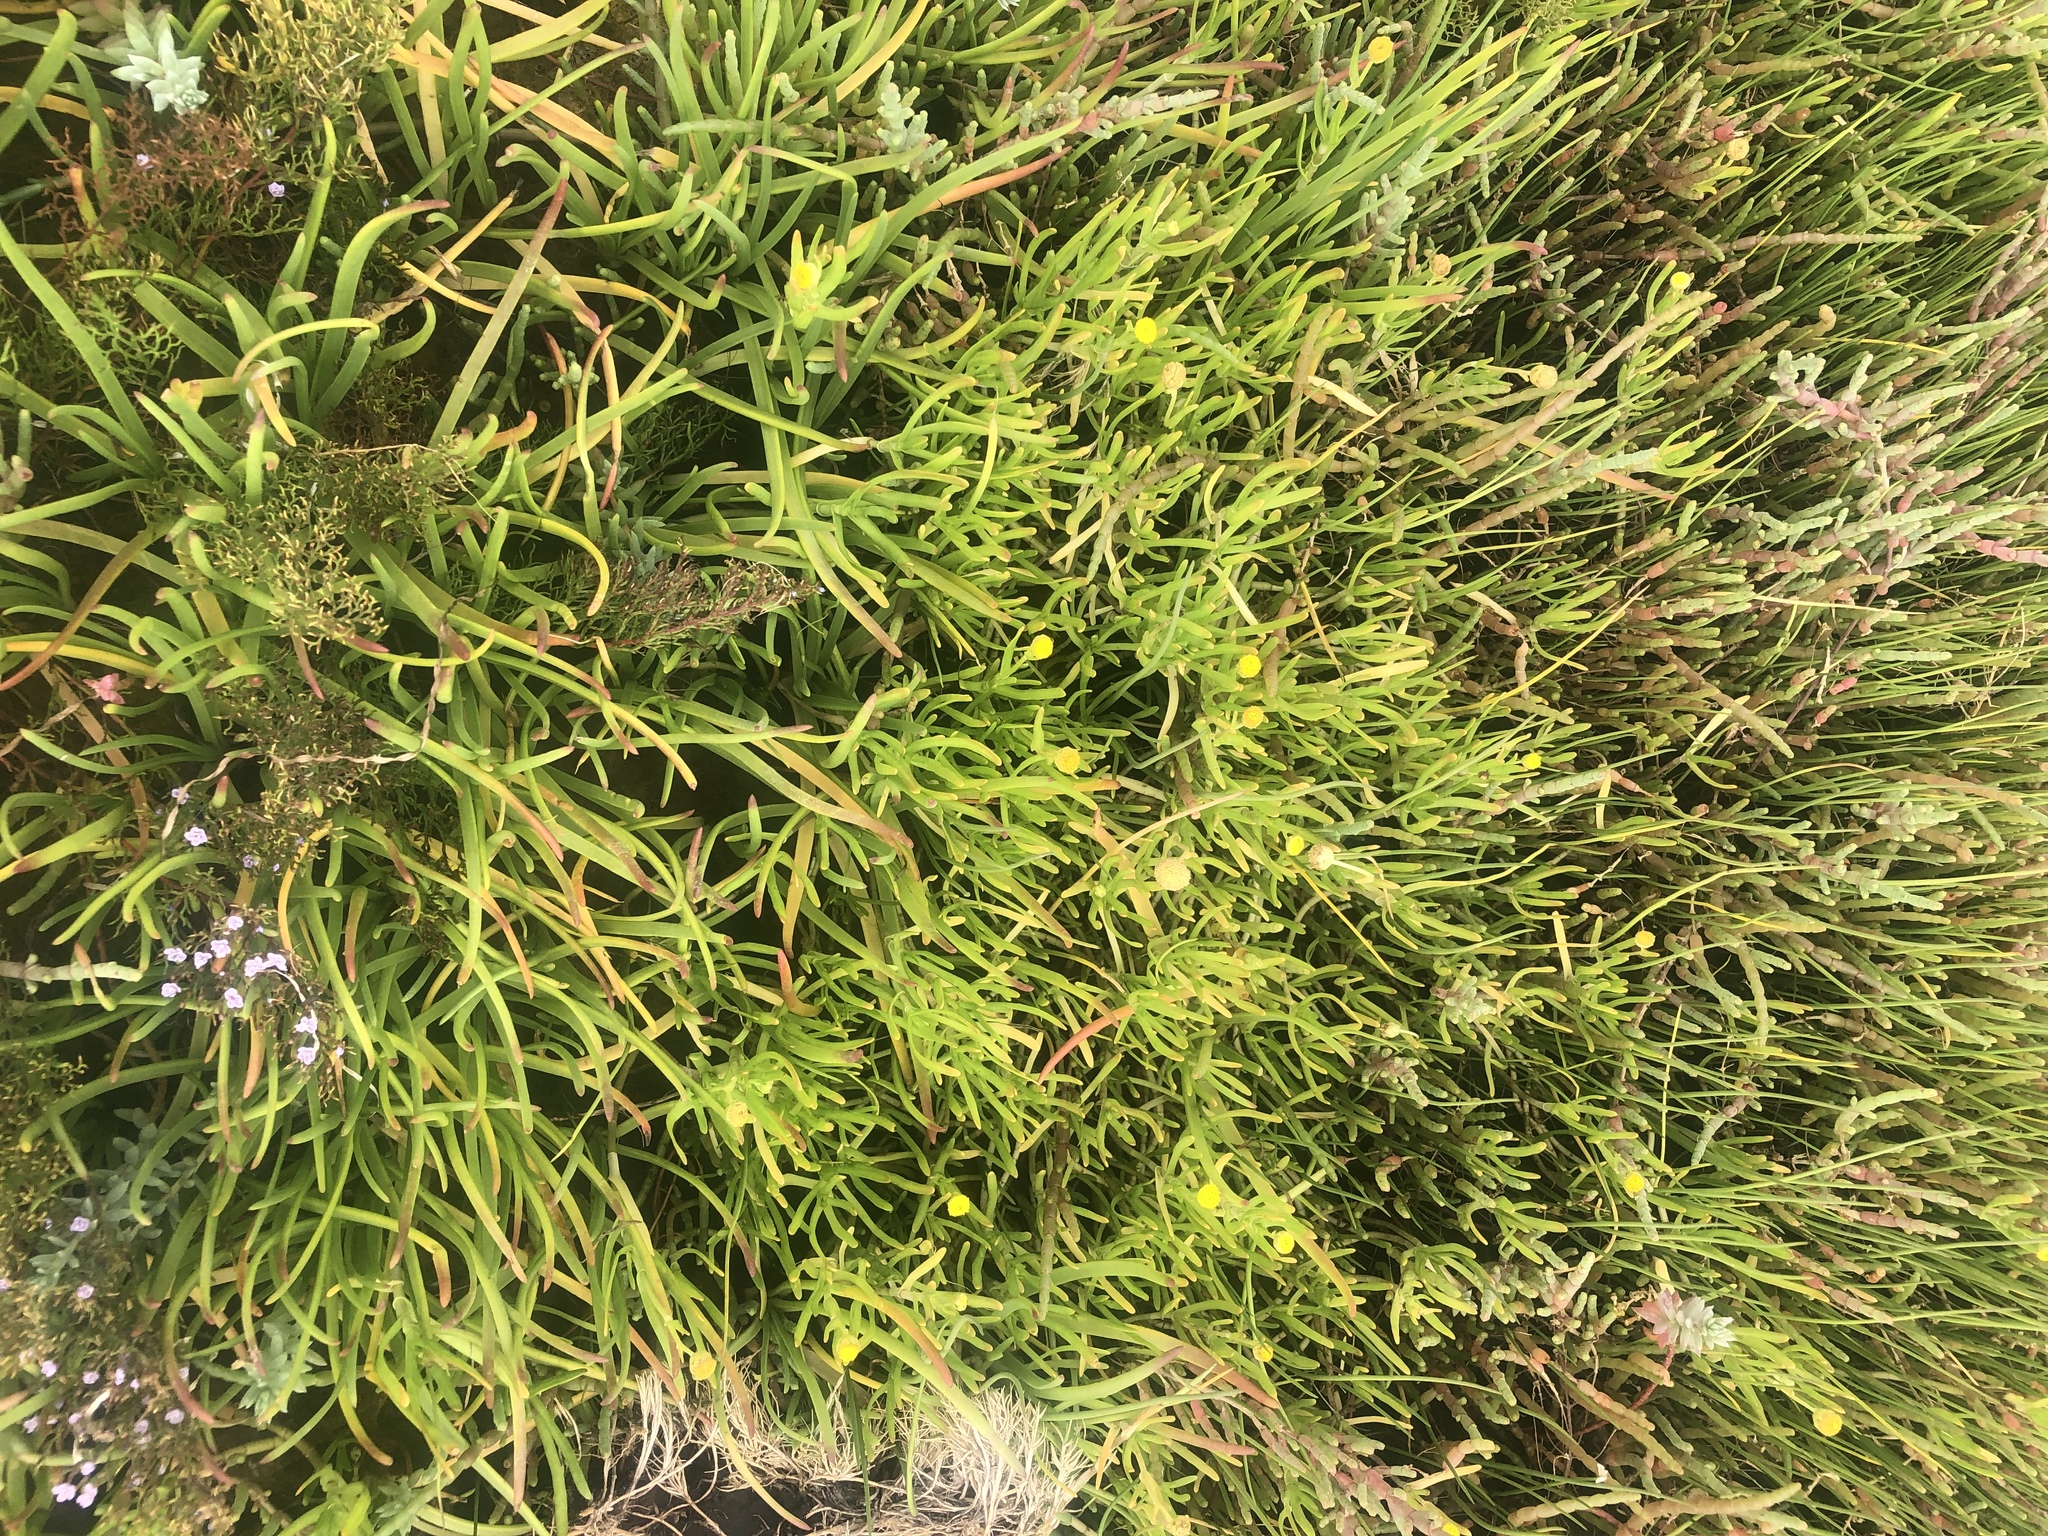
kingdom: Plantae
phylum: Tracheophyta
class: Magnoliopsida
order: Asterales
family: Asteraceae
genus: Cotula
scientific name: Cotula coronopifolia
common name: Buttonweed
